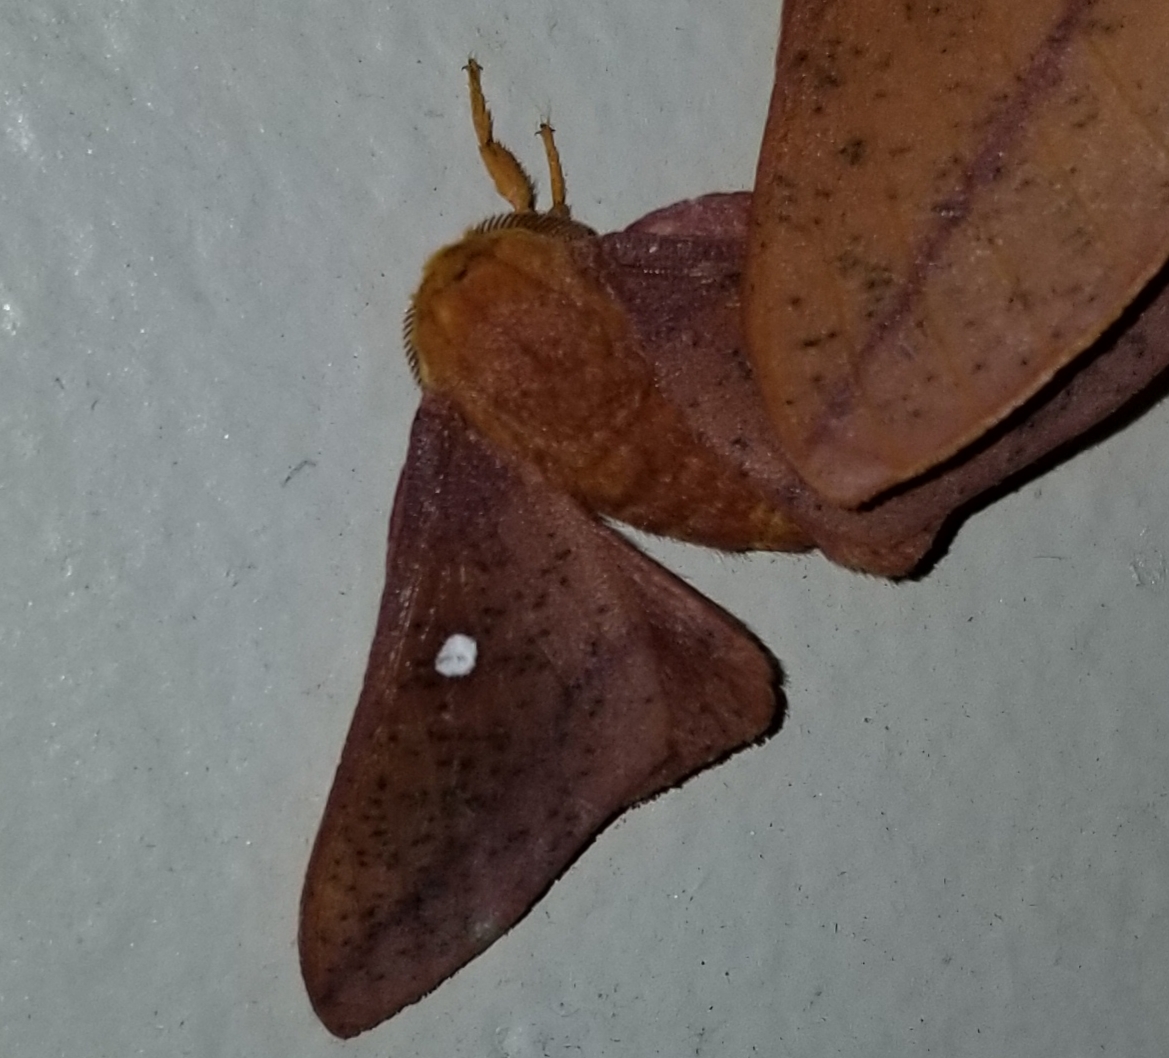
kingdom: Animalia
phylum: Arthropoda
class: Insecta
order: Lepidoptera
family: Saturniidae
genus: Anisota
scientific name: Anisota stigma
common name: Spiny oakworm moth
